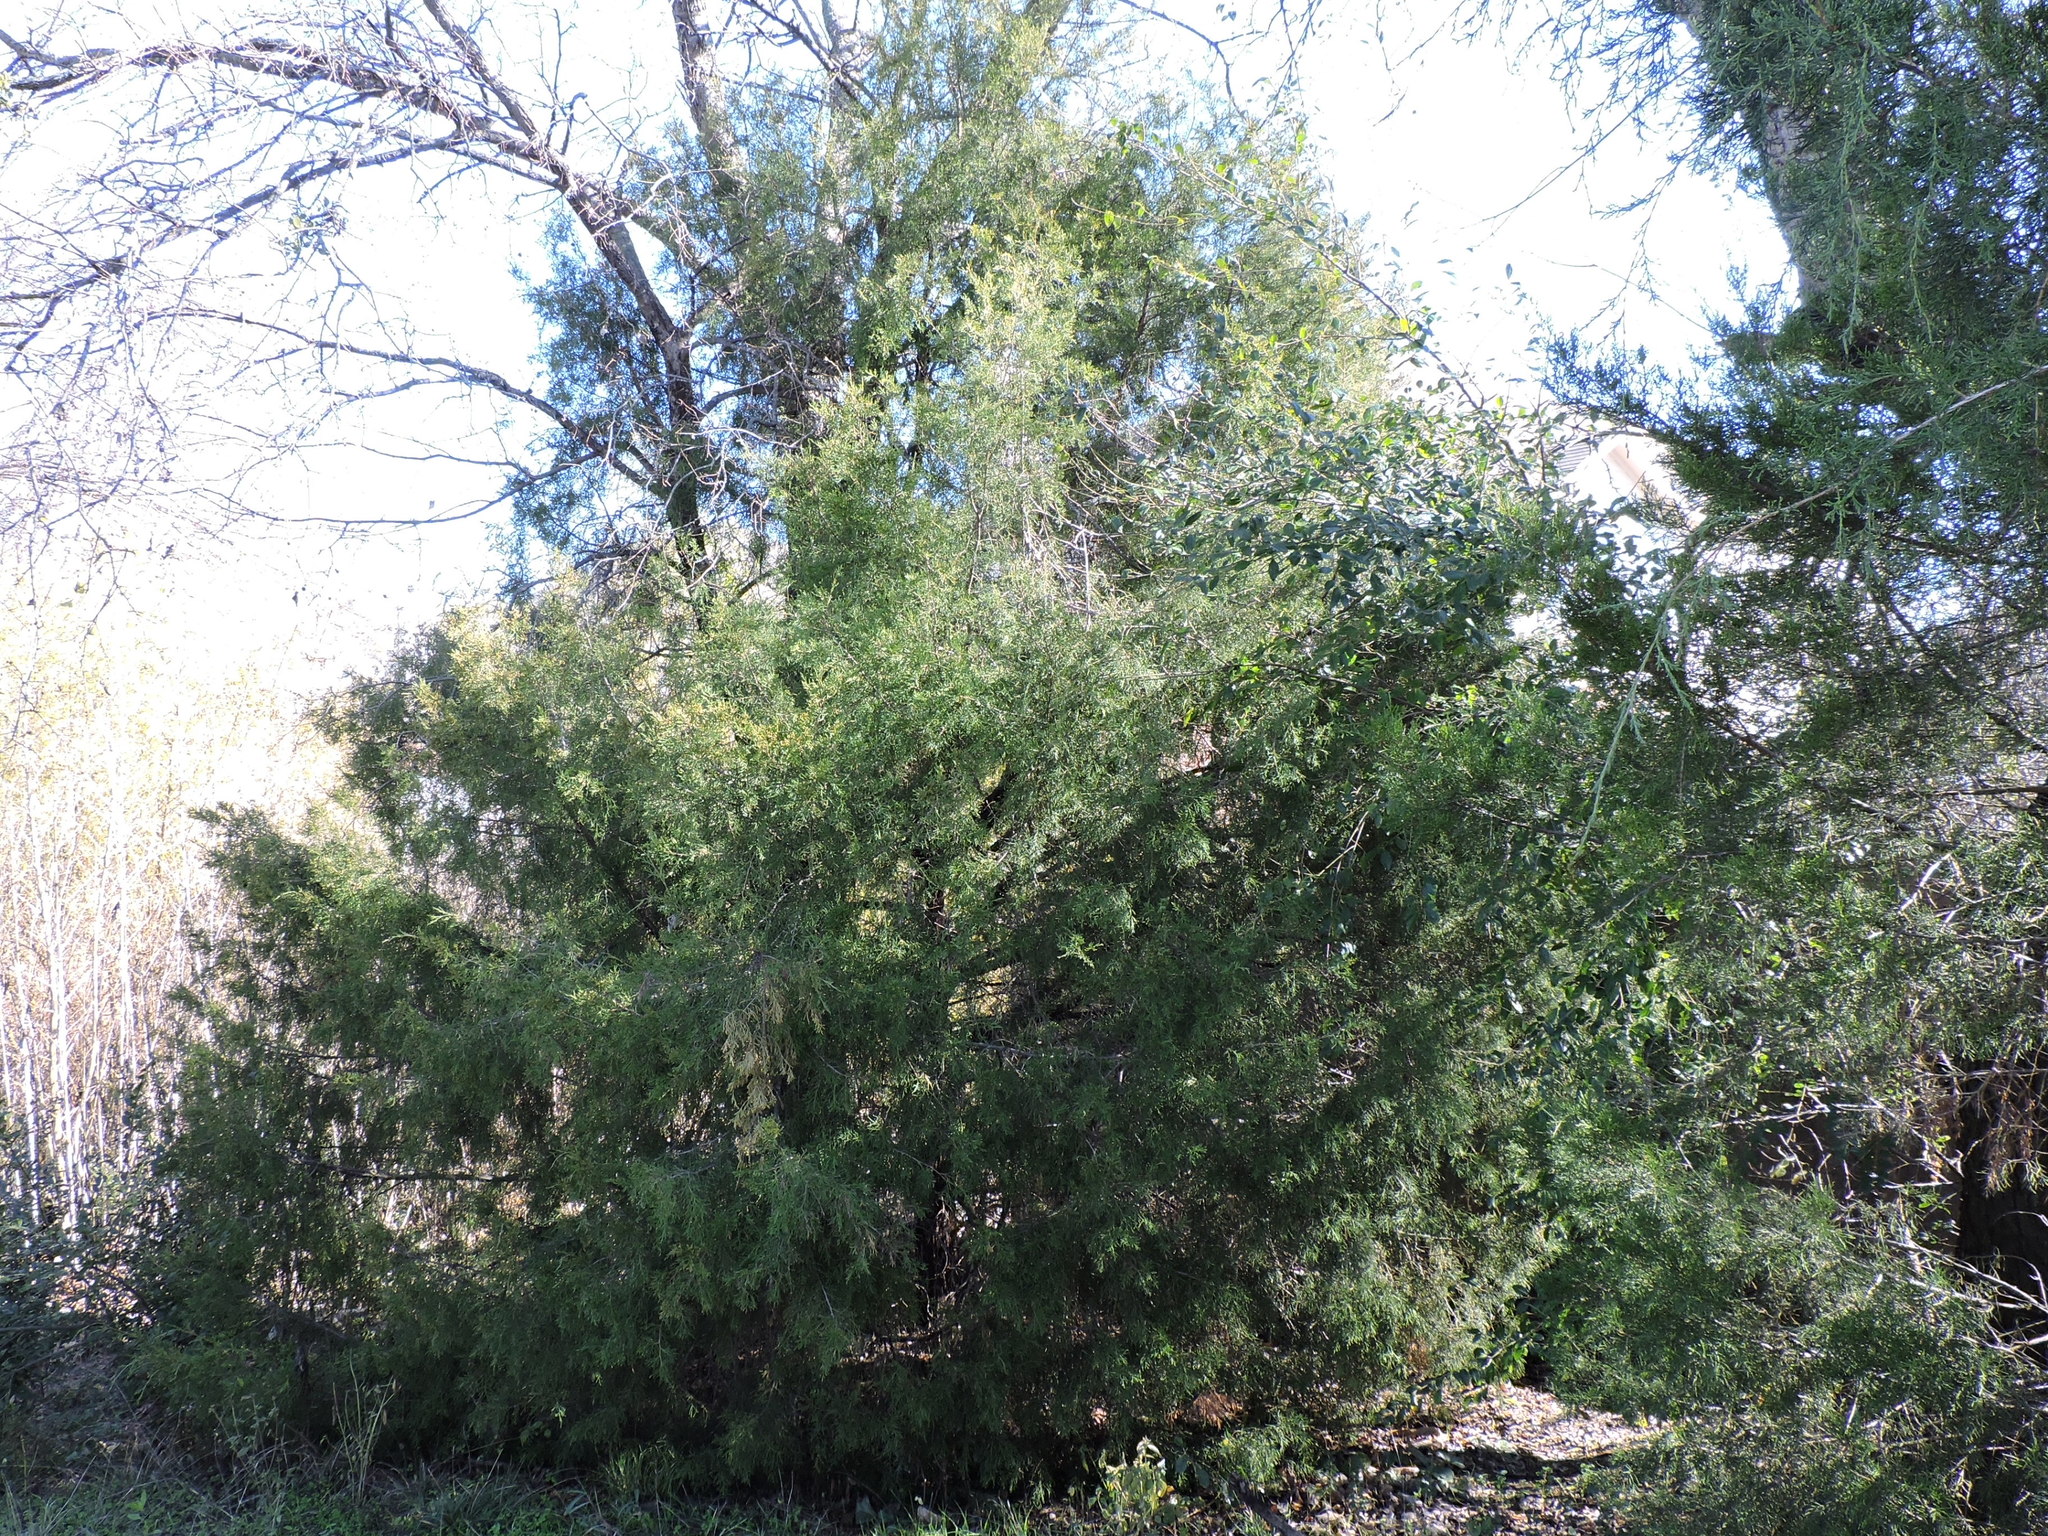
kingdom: Plantae
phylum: Tracheophyta
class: Pinopsida
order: Pinales
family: Cupressaceae
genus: Juniperus
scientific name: Juniperus virginiana
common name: Red juniper
